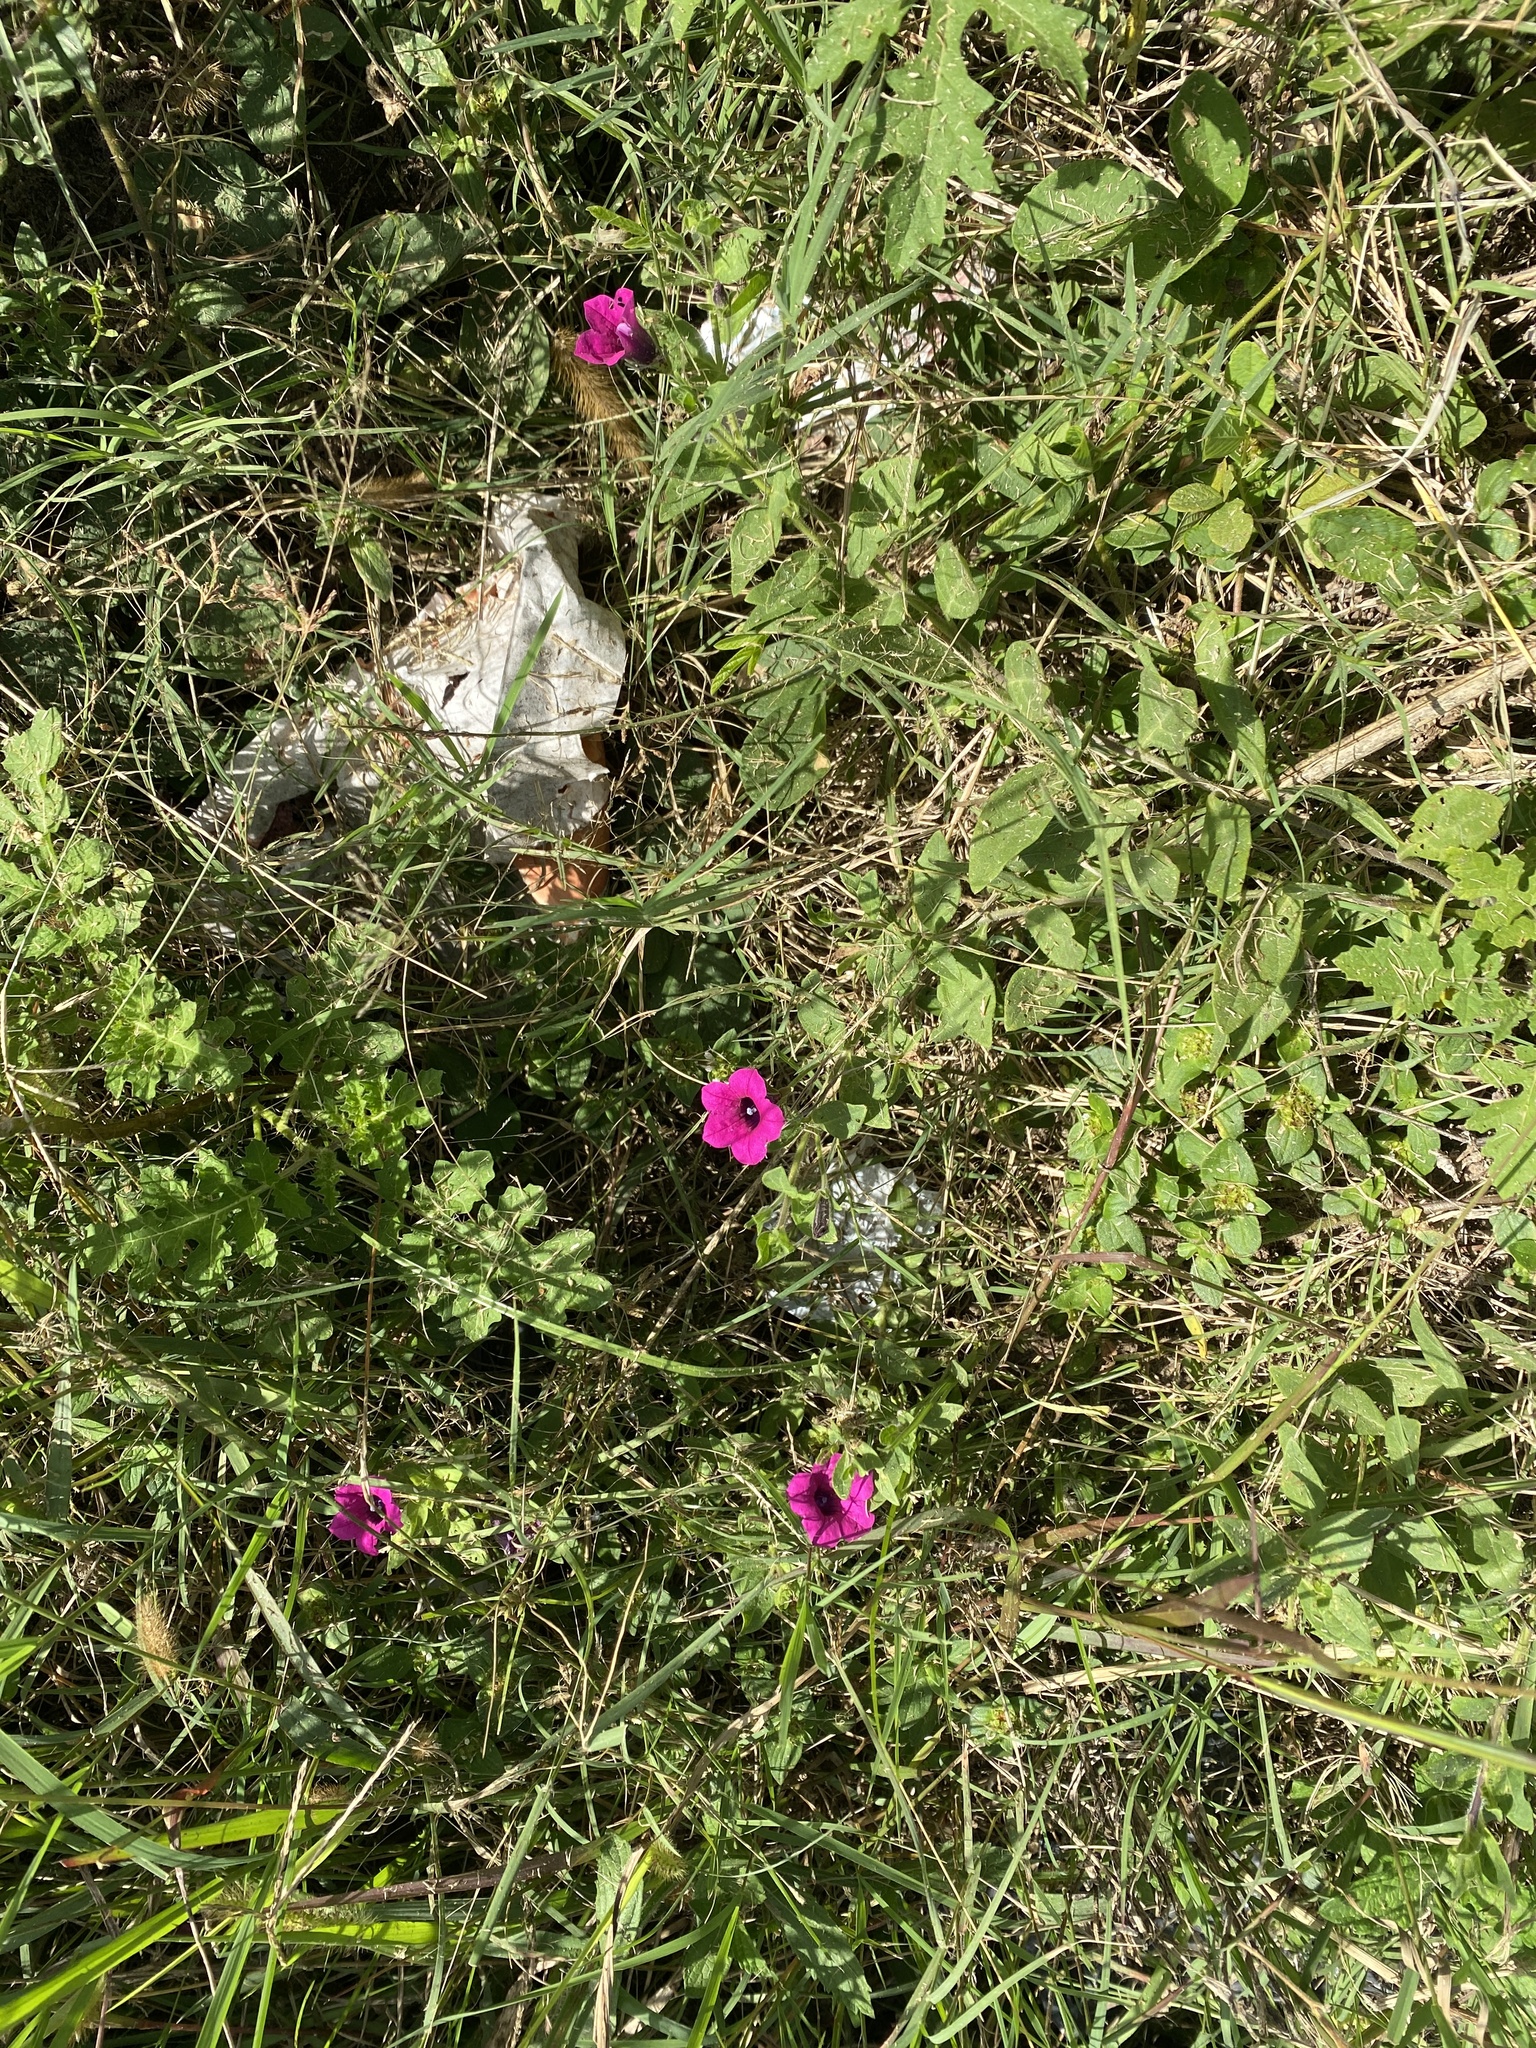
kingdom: Plantae
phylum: Tracheophyta
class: Magnoliopsida
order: Solanales
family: Solanaceae
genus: Petunia
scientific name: Petunia integrifolia
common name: Violet-flower petunia
